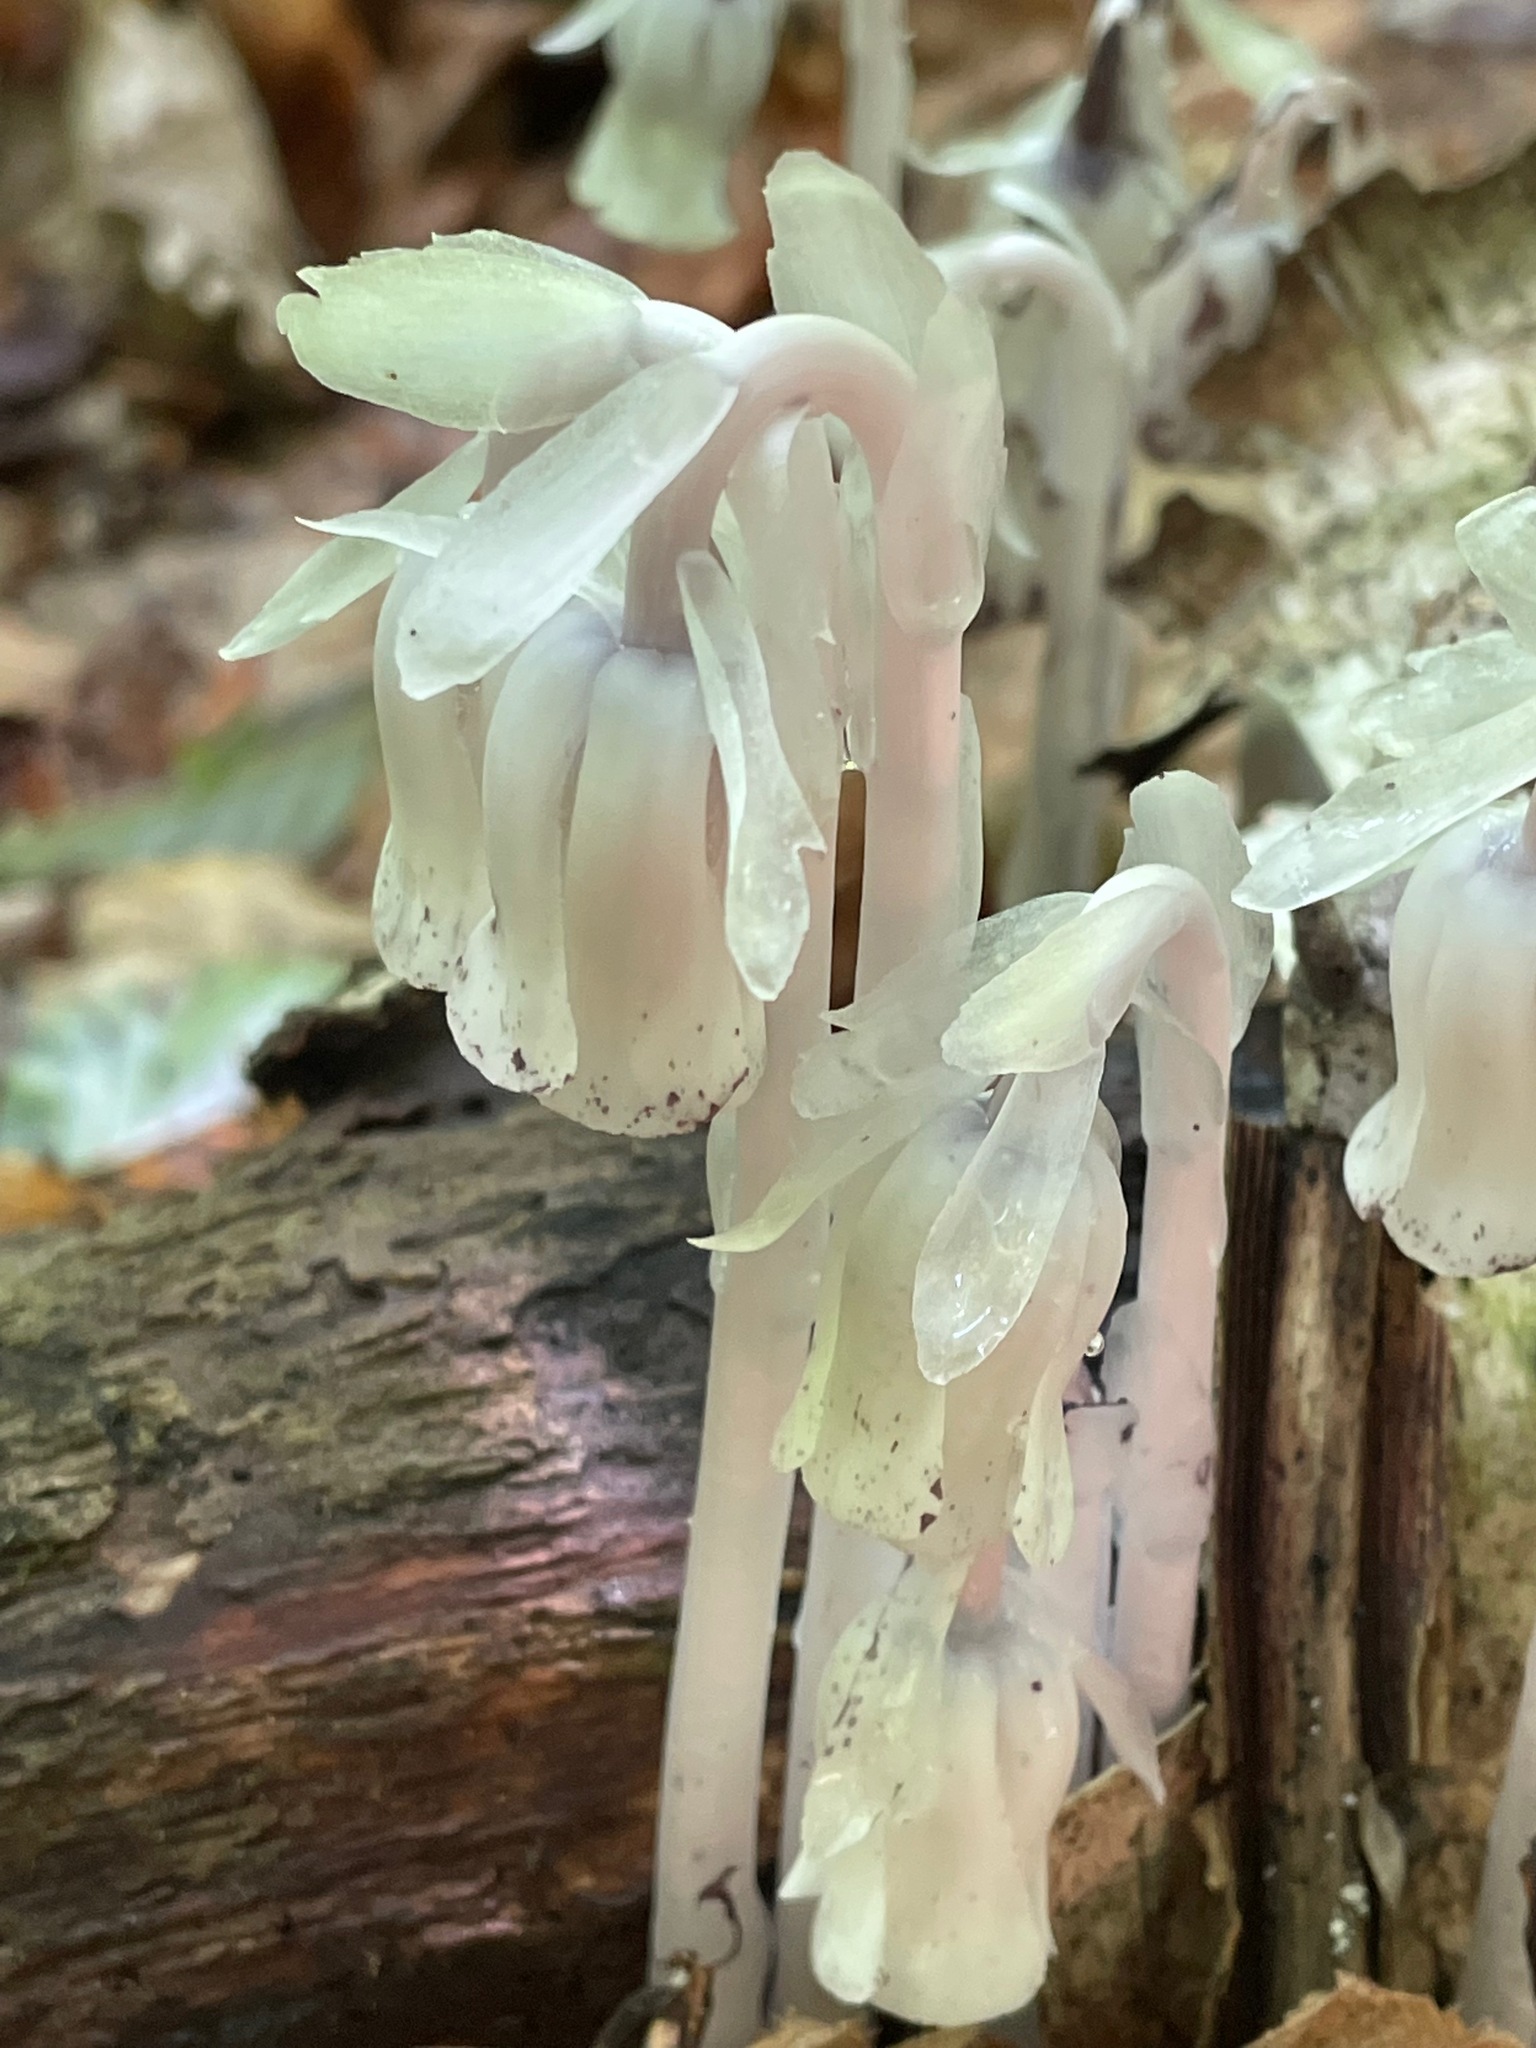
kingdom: Plantae
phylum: Tracheophyta
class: Magnoliopsida
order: Ericales
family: Ericaceae
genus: Monotropa
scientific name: Monotropa uniflora
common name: Convulsion root
